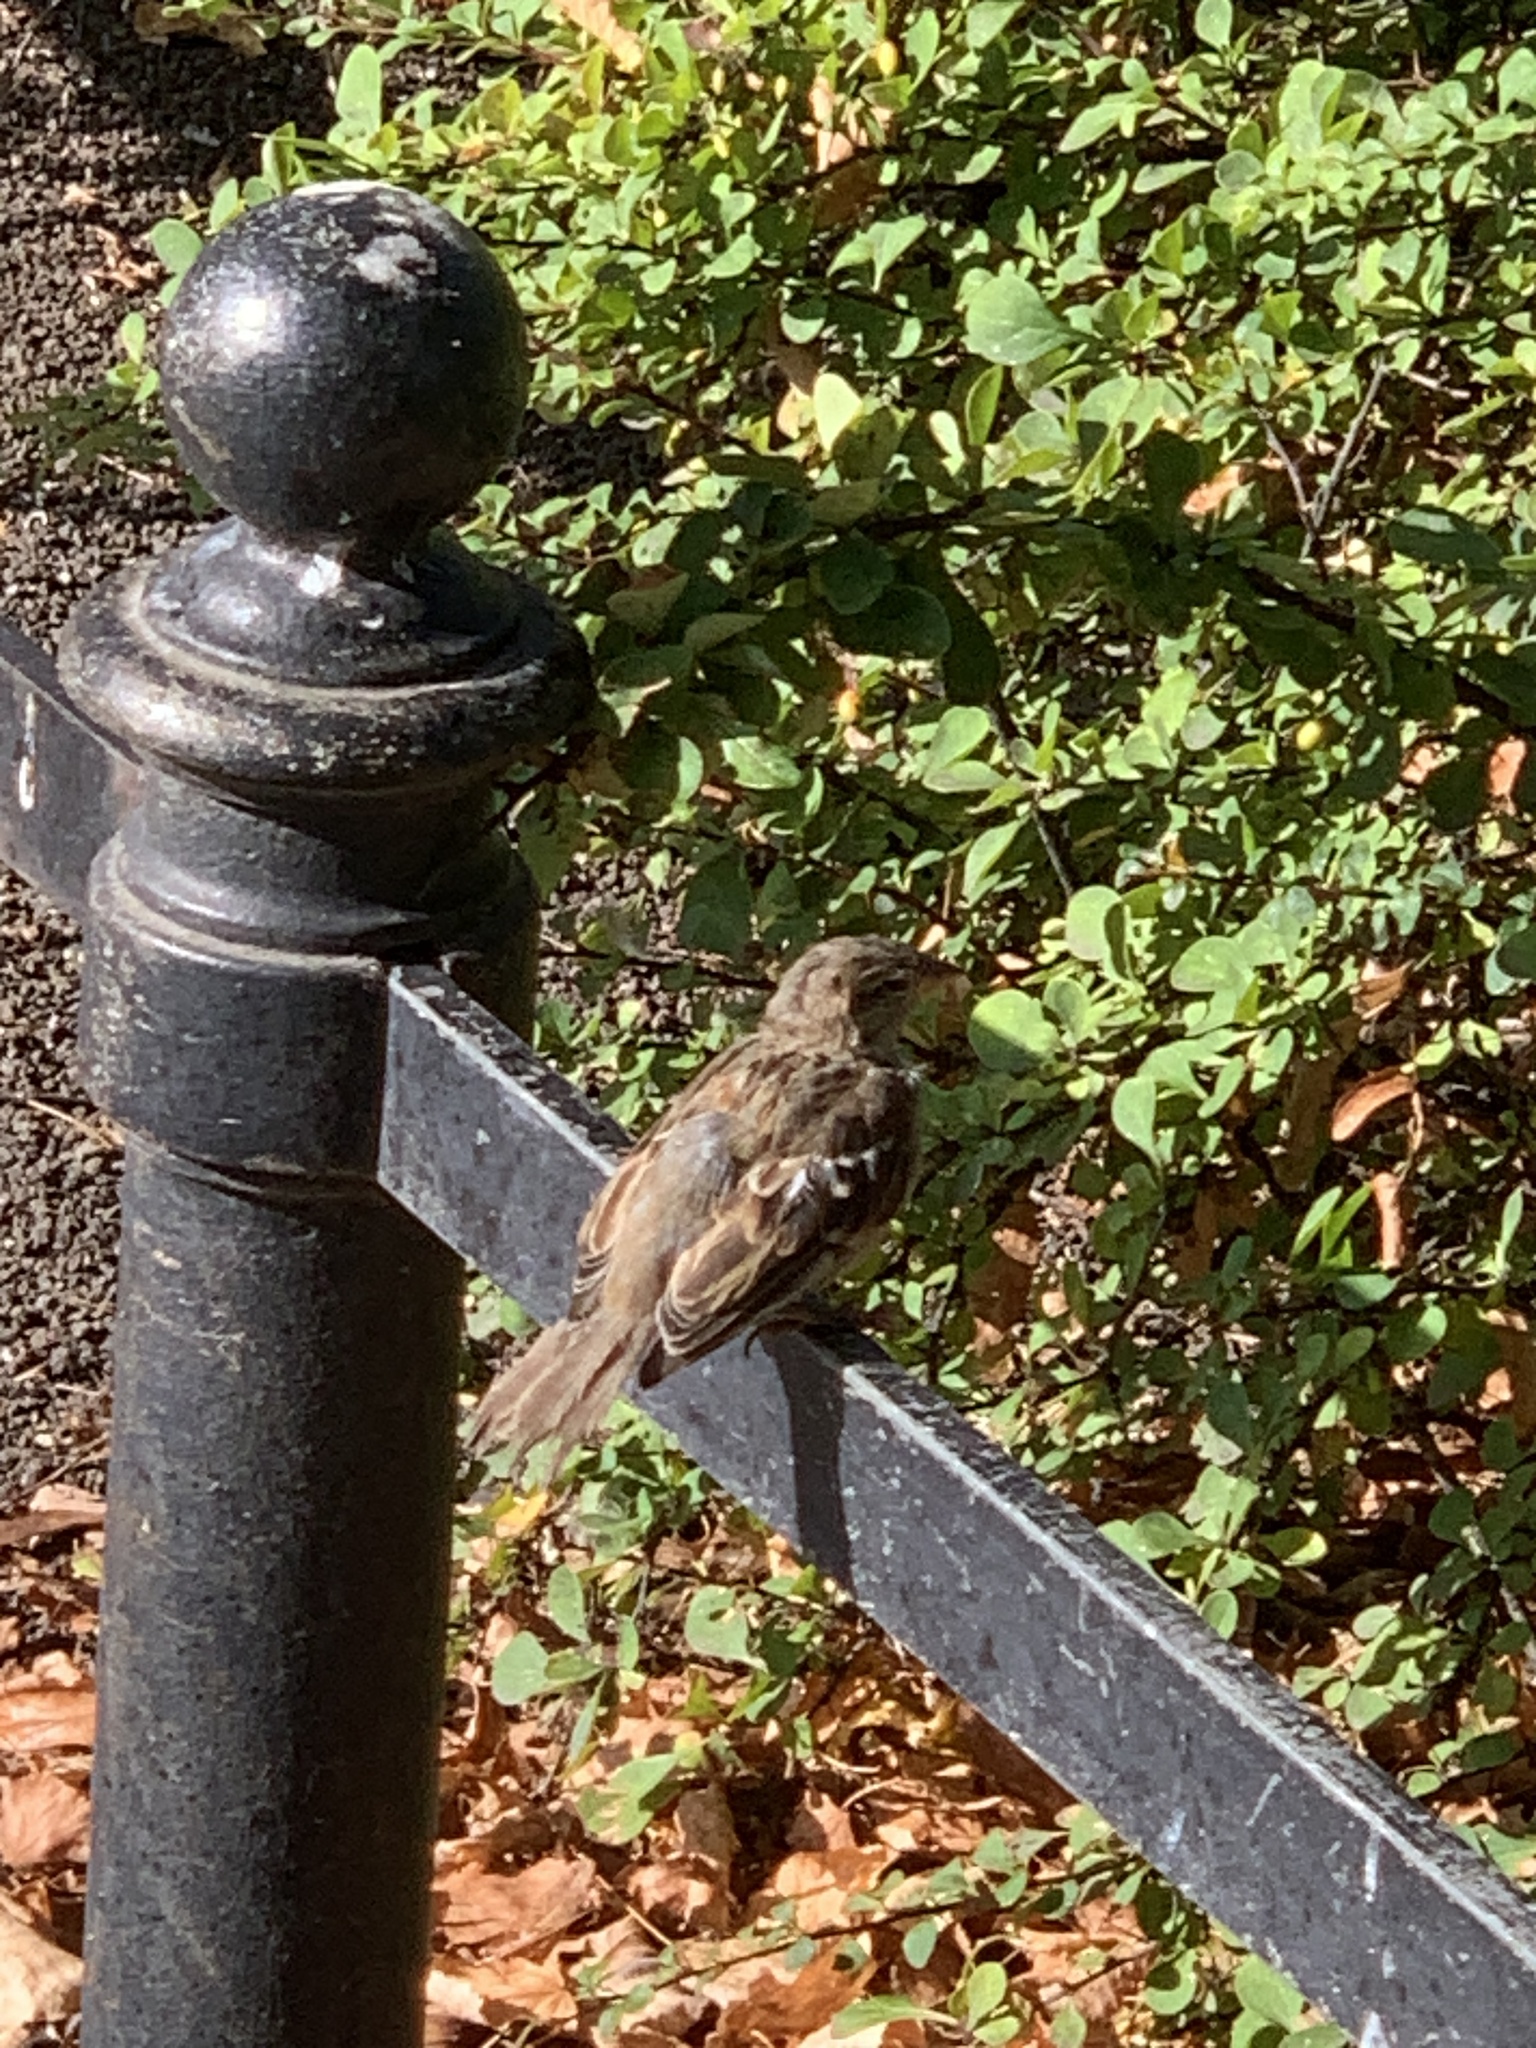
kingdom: Animalia
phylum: Chordata
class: Aves
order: Passeriformes
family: Passeridae
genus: Passer
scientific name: Passer domesticus
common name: House sparrow
